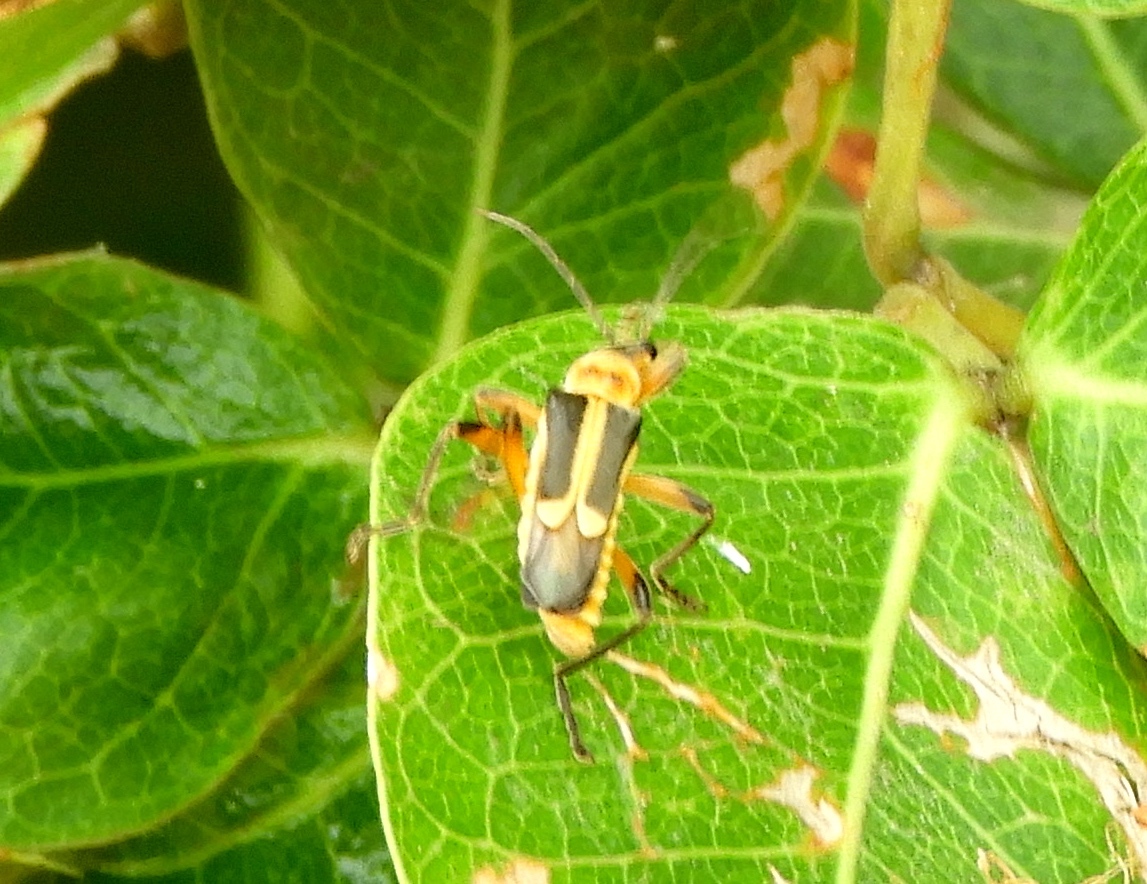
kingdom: Animalia
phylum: Arthropoda
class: Insecta
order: Coleoptera
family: Cantharidae
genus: Chauliognathus
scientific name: Chauliognathus
